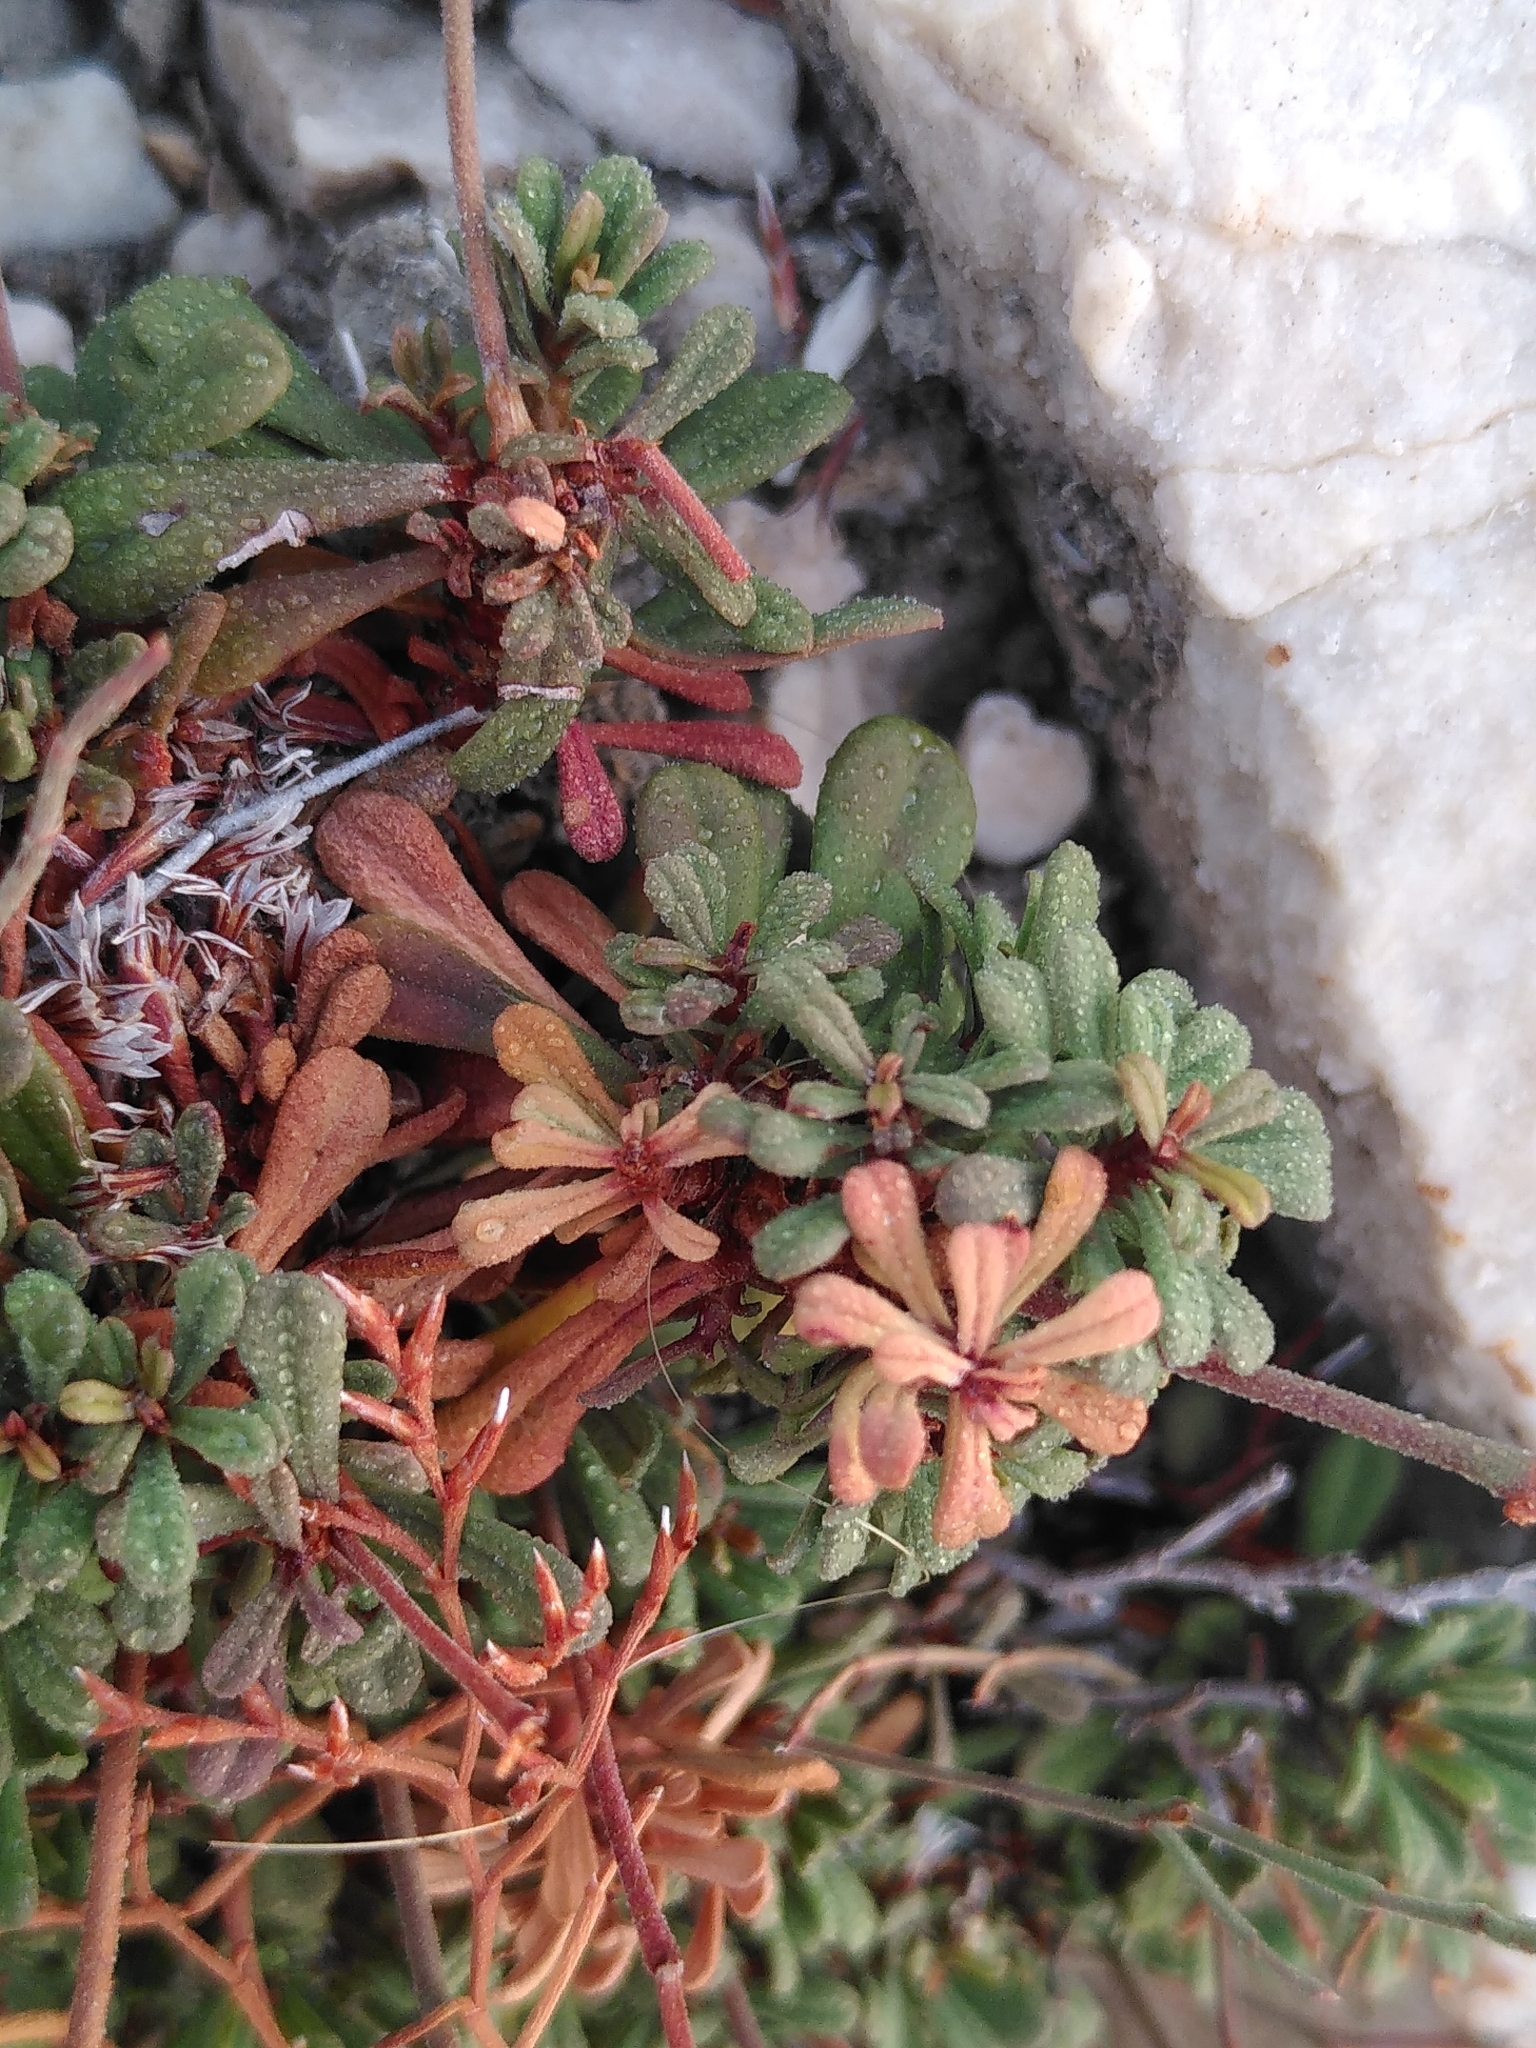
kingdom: Plantae
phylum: Tracheophyta
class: Magnoliopsida
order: Caryophyllales
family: Plumbaginaceae
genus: Limonium
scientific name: Limonium pseudominutum
